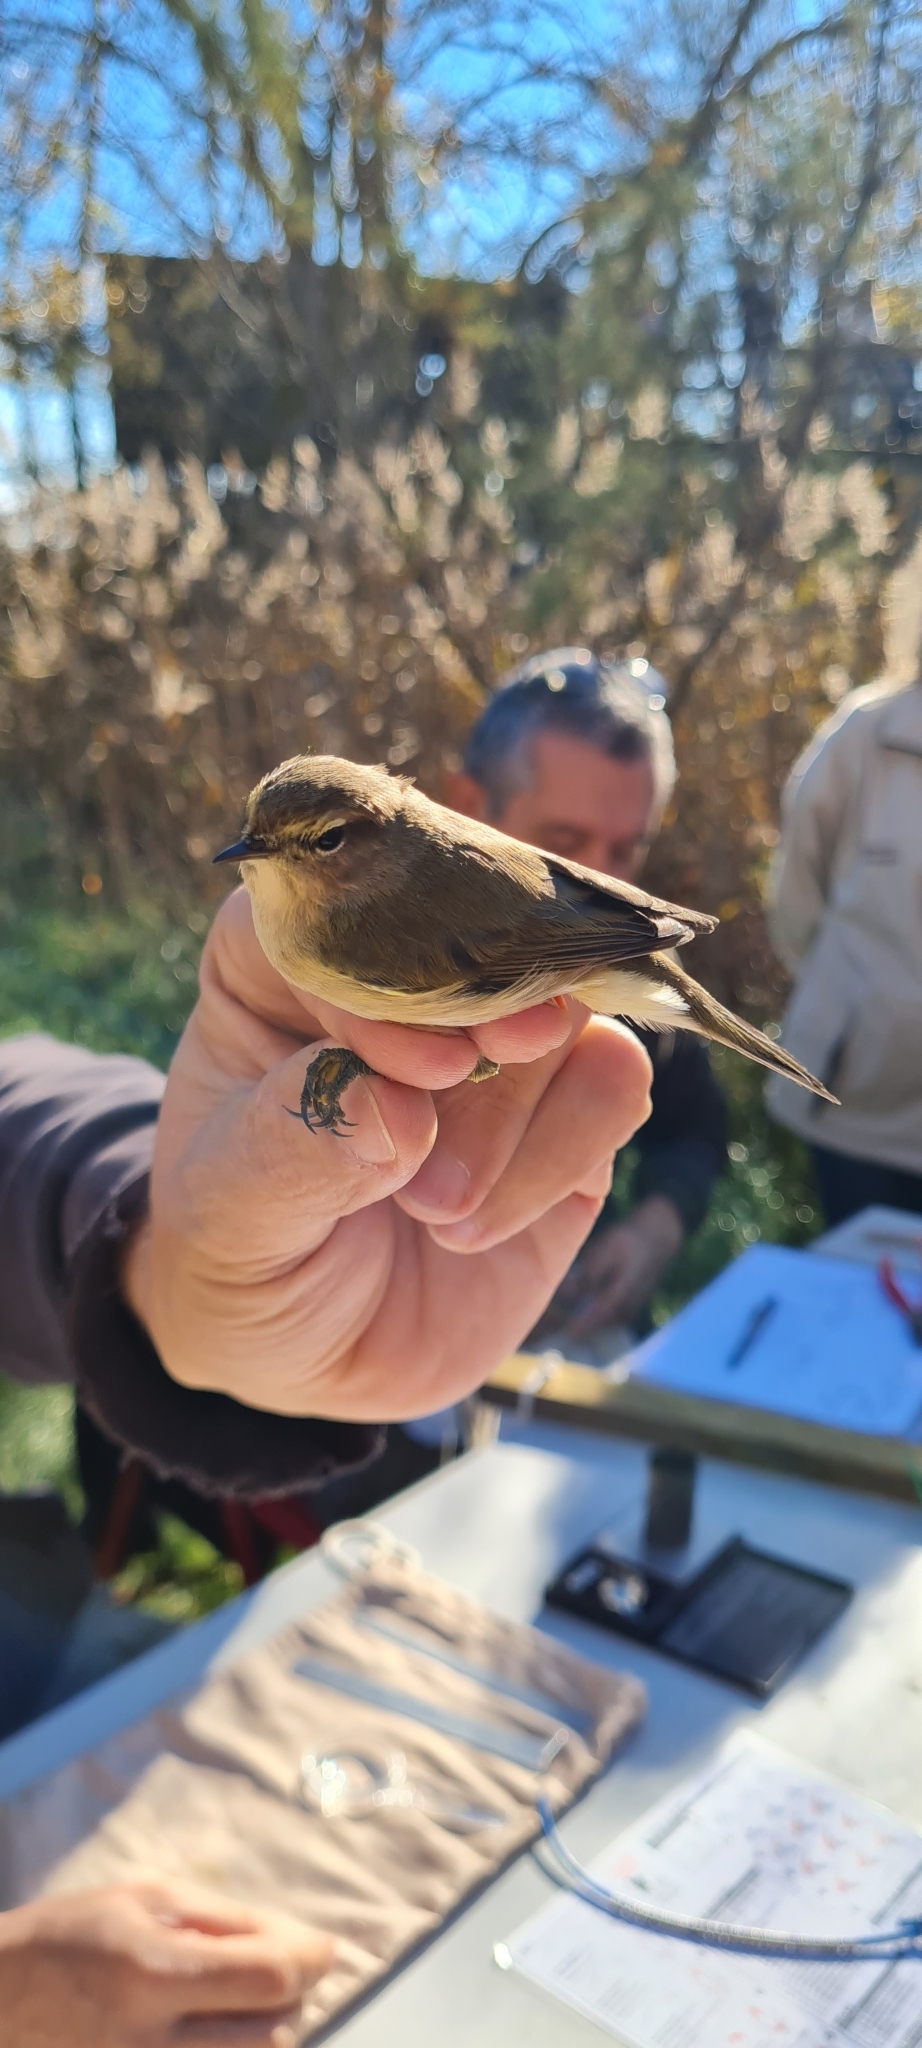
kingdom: Animalia
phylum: Chordata
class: Aves
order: Passeriformes
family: Phylloscopidae
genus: Phylloscopus
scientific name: Phylloscopus collybita
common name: Common chiffchaff
